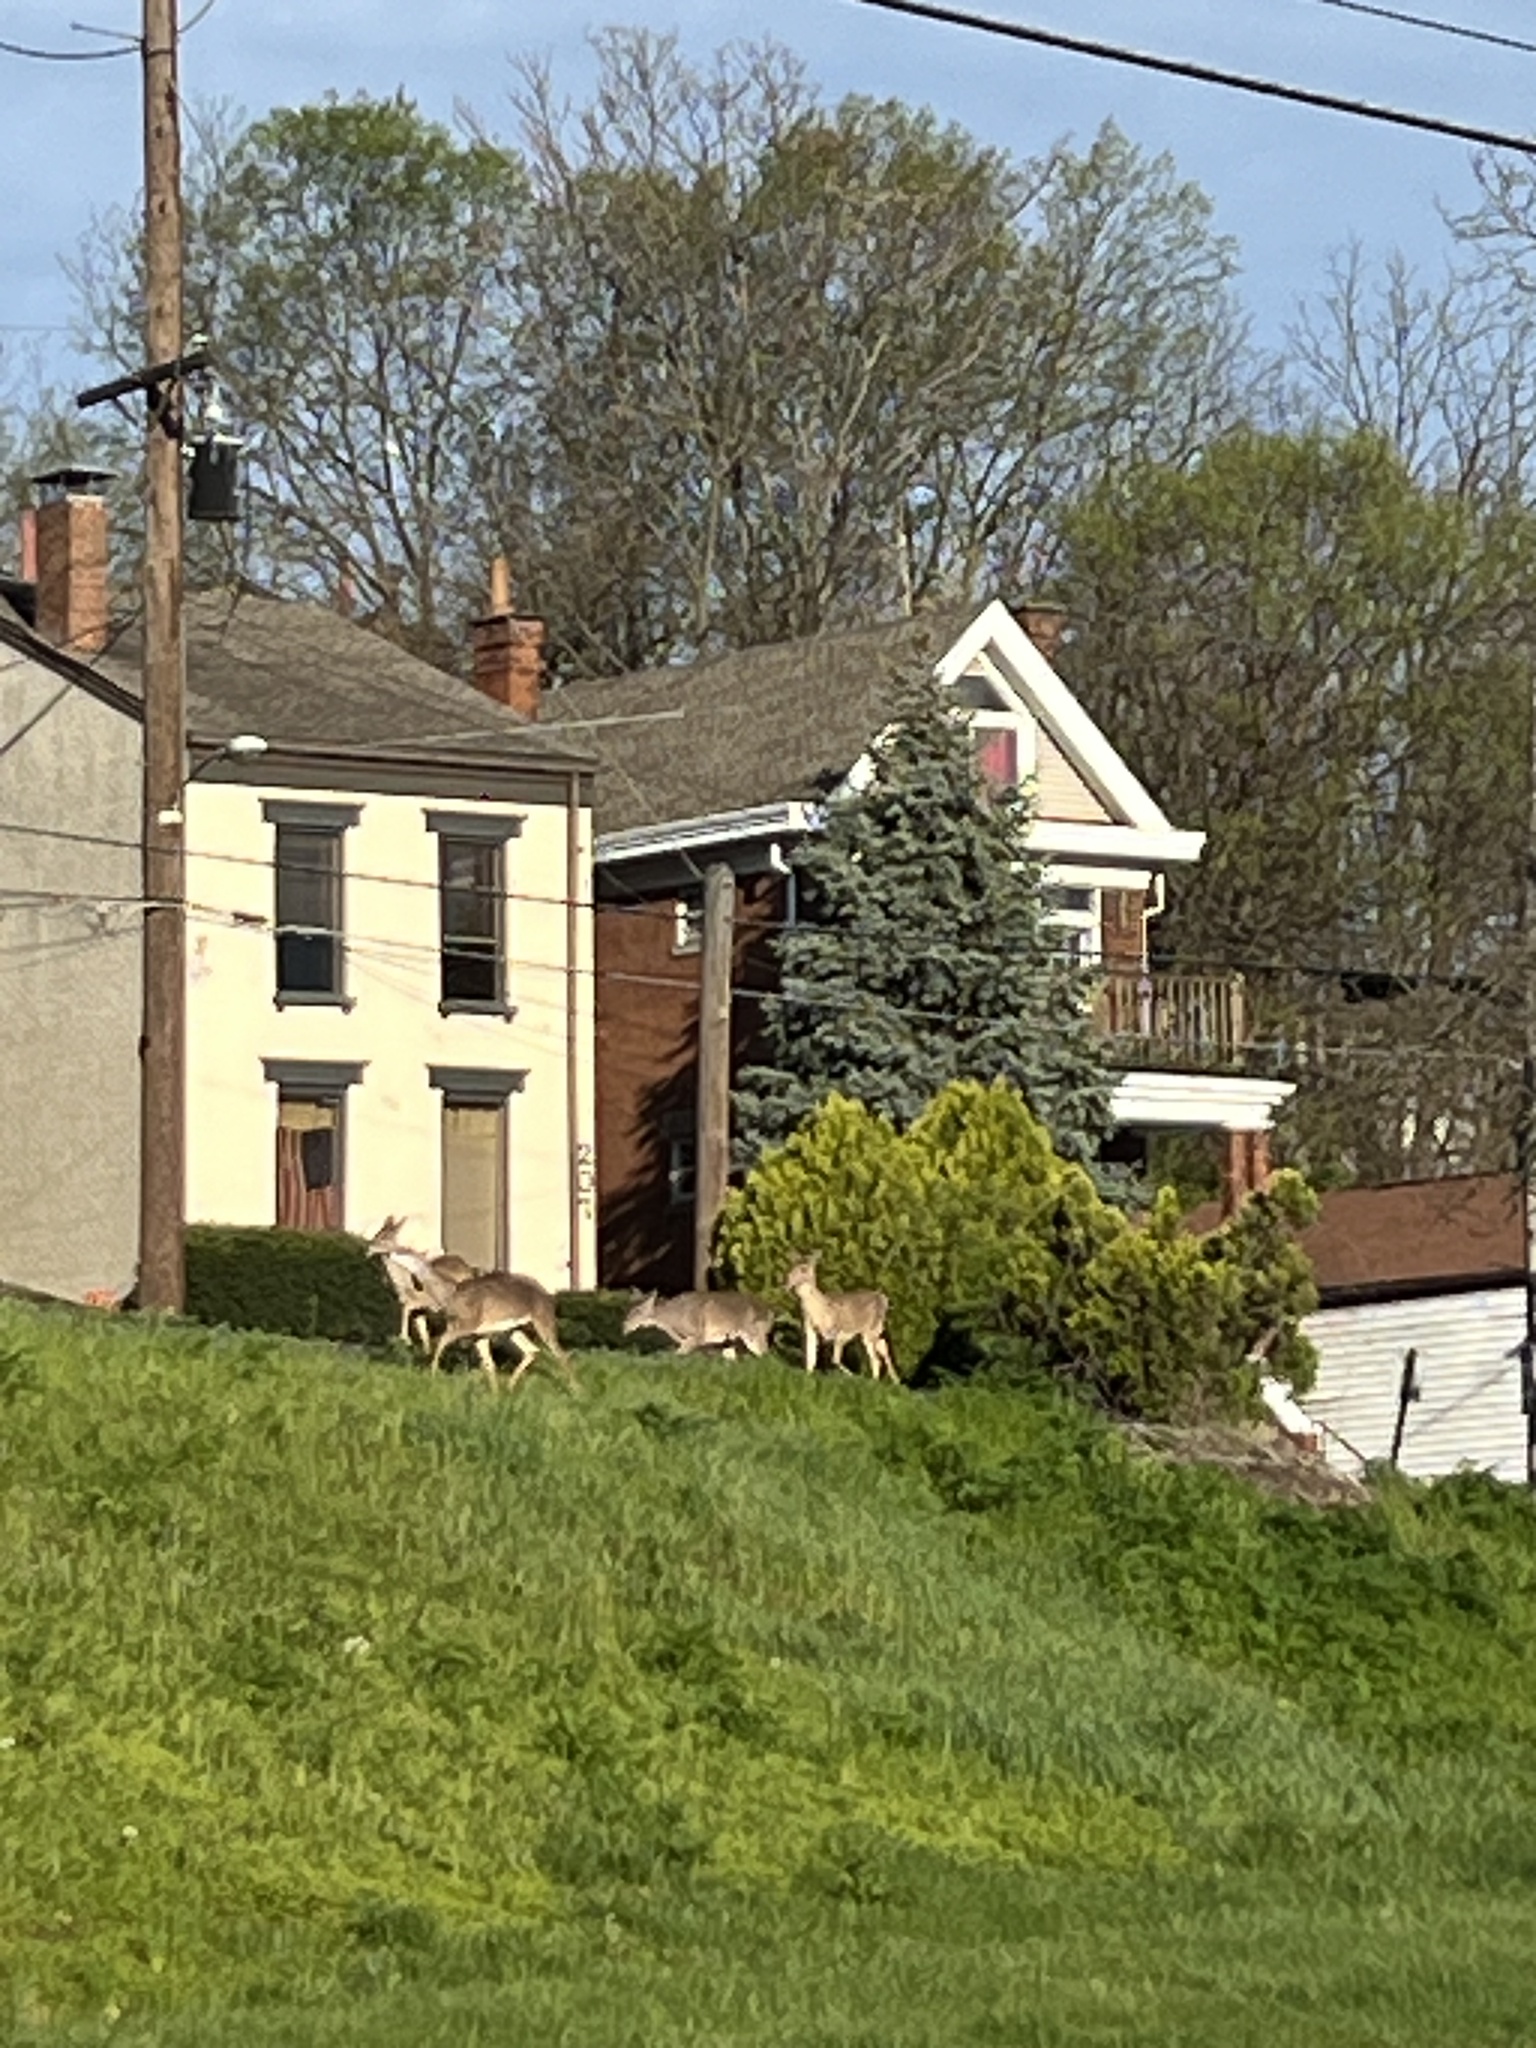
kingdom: Animalia
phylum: Chordata
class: Mammalia
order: Artiodactyla
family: Cervidae
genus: Odocoileus
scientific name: Odocoileus virginianus
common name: White-tailed deer
